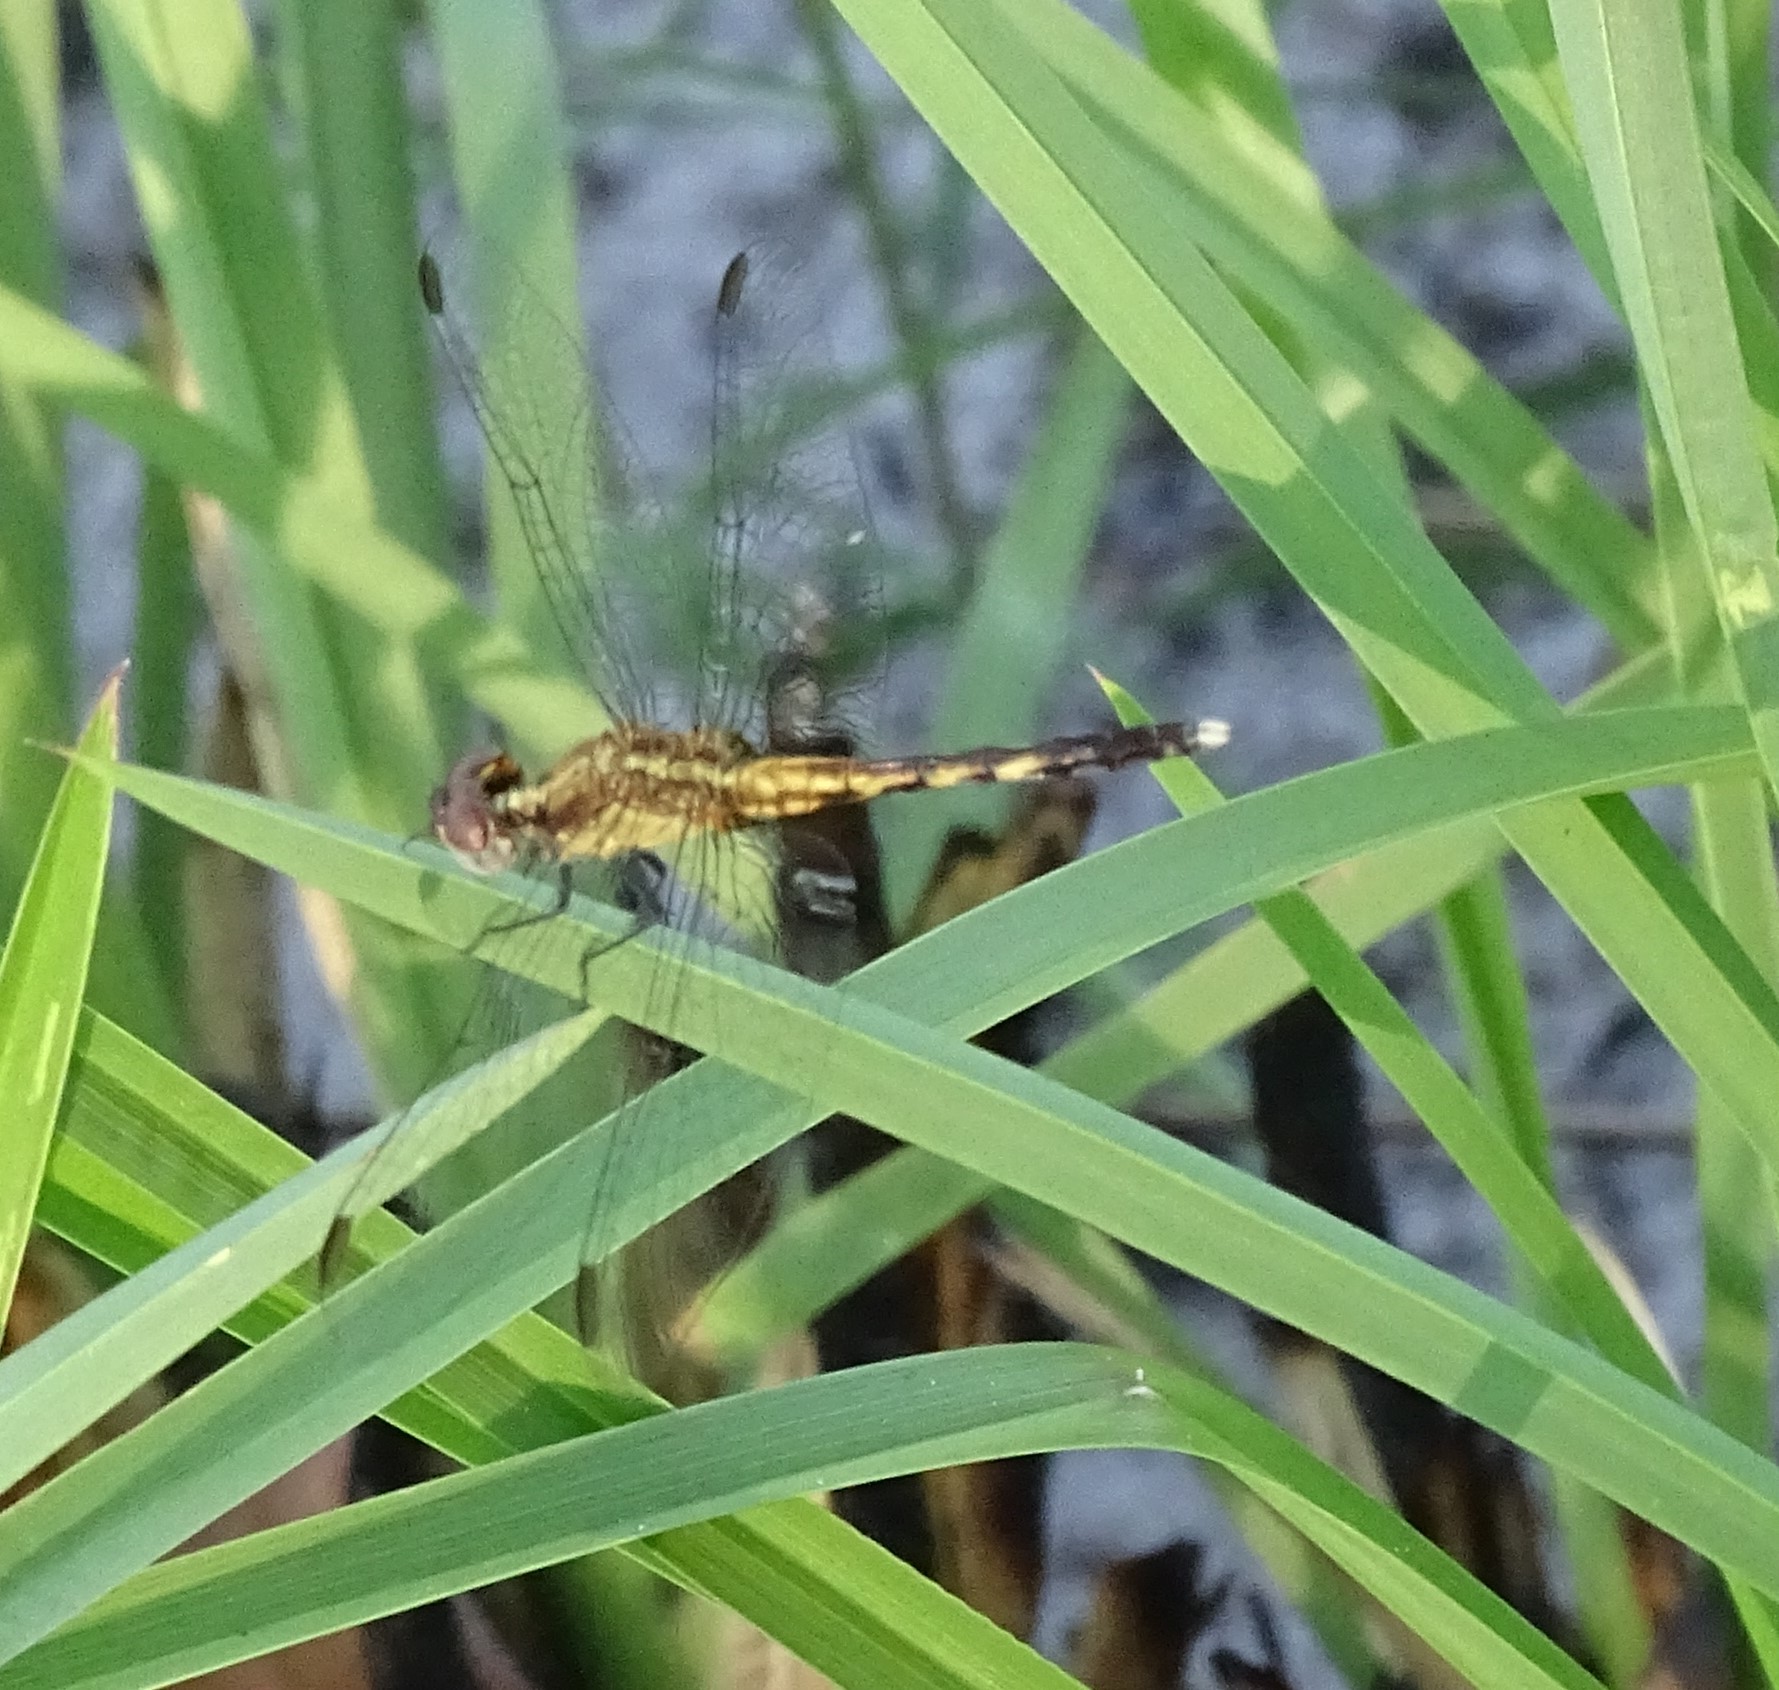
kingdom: Animalia
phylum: Arthropoda
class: Insecta
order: Odonata
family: Libellulidae
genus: Erythrodiplax
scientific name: Erythrodiplax minuscula
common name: Little blue dragonlet
